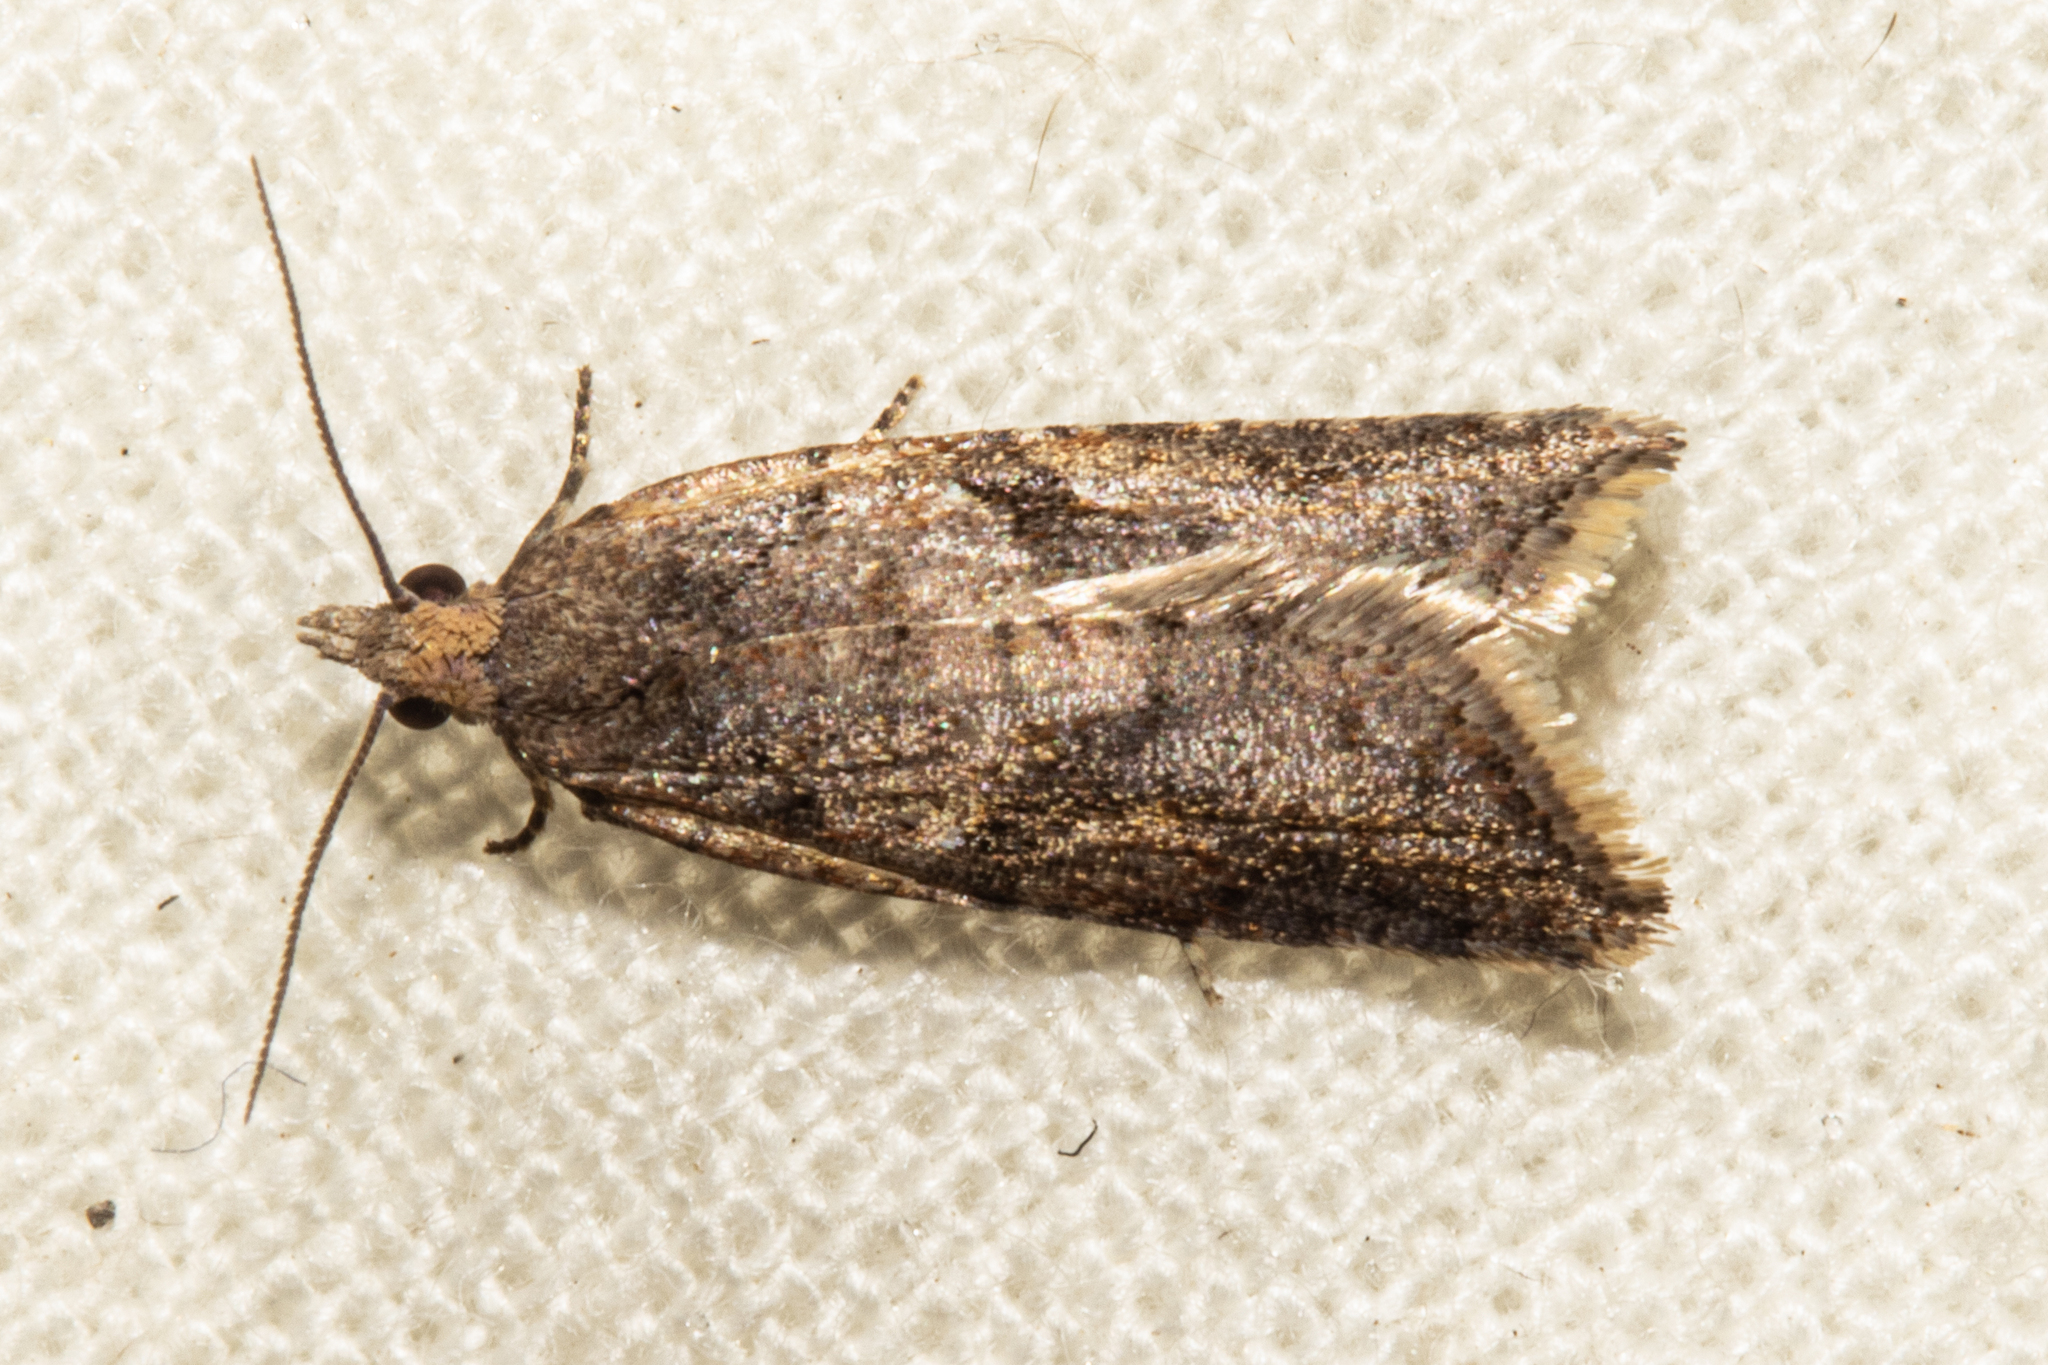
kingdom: Animalia
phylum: Arthropoda
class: Insecta
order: Lepidoptera
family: Tortricidae
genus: Capua
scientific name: Capua semiferana
